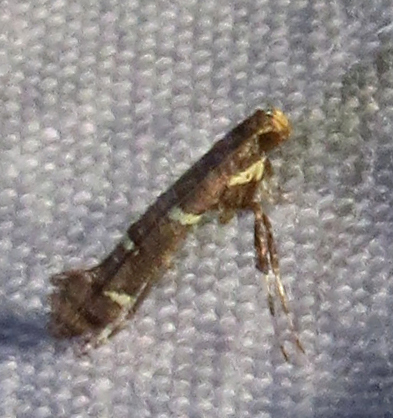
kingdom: Animalia
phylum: Arthropoda
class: Insecta
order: Lepidoptera
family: Gracillariidae
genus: Caloptilia
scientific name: Caloptilia triadicae
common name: Tallow leaf roller
